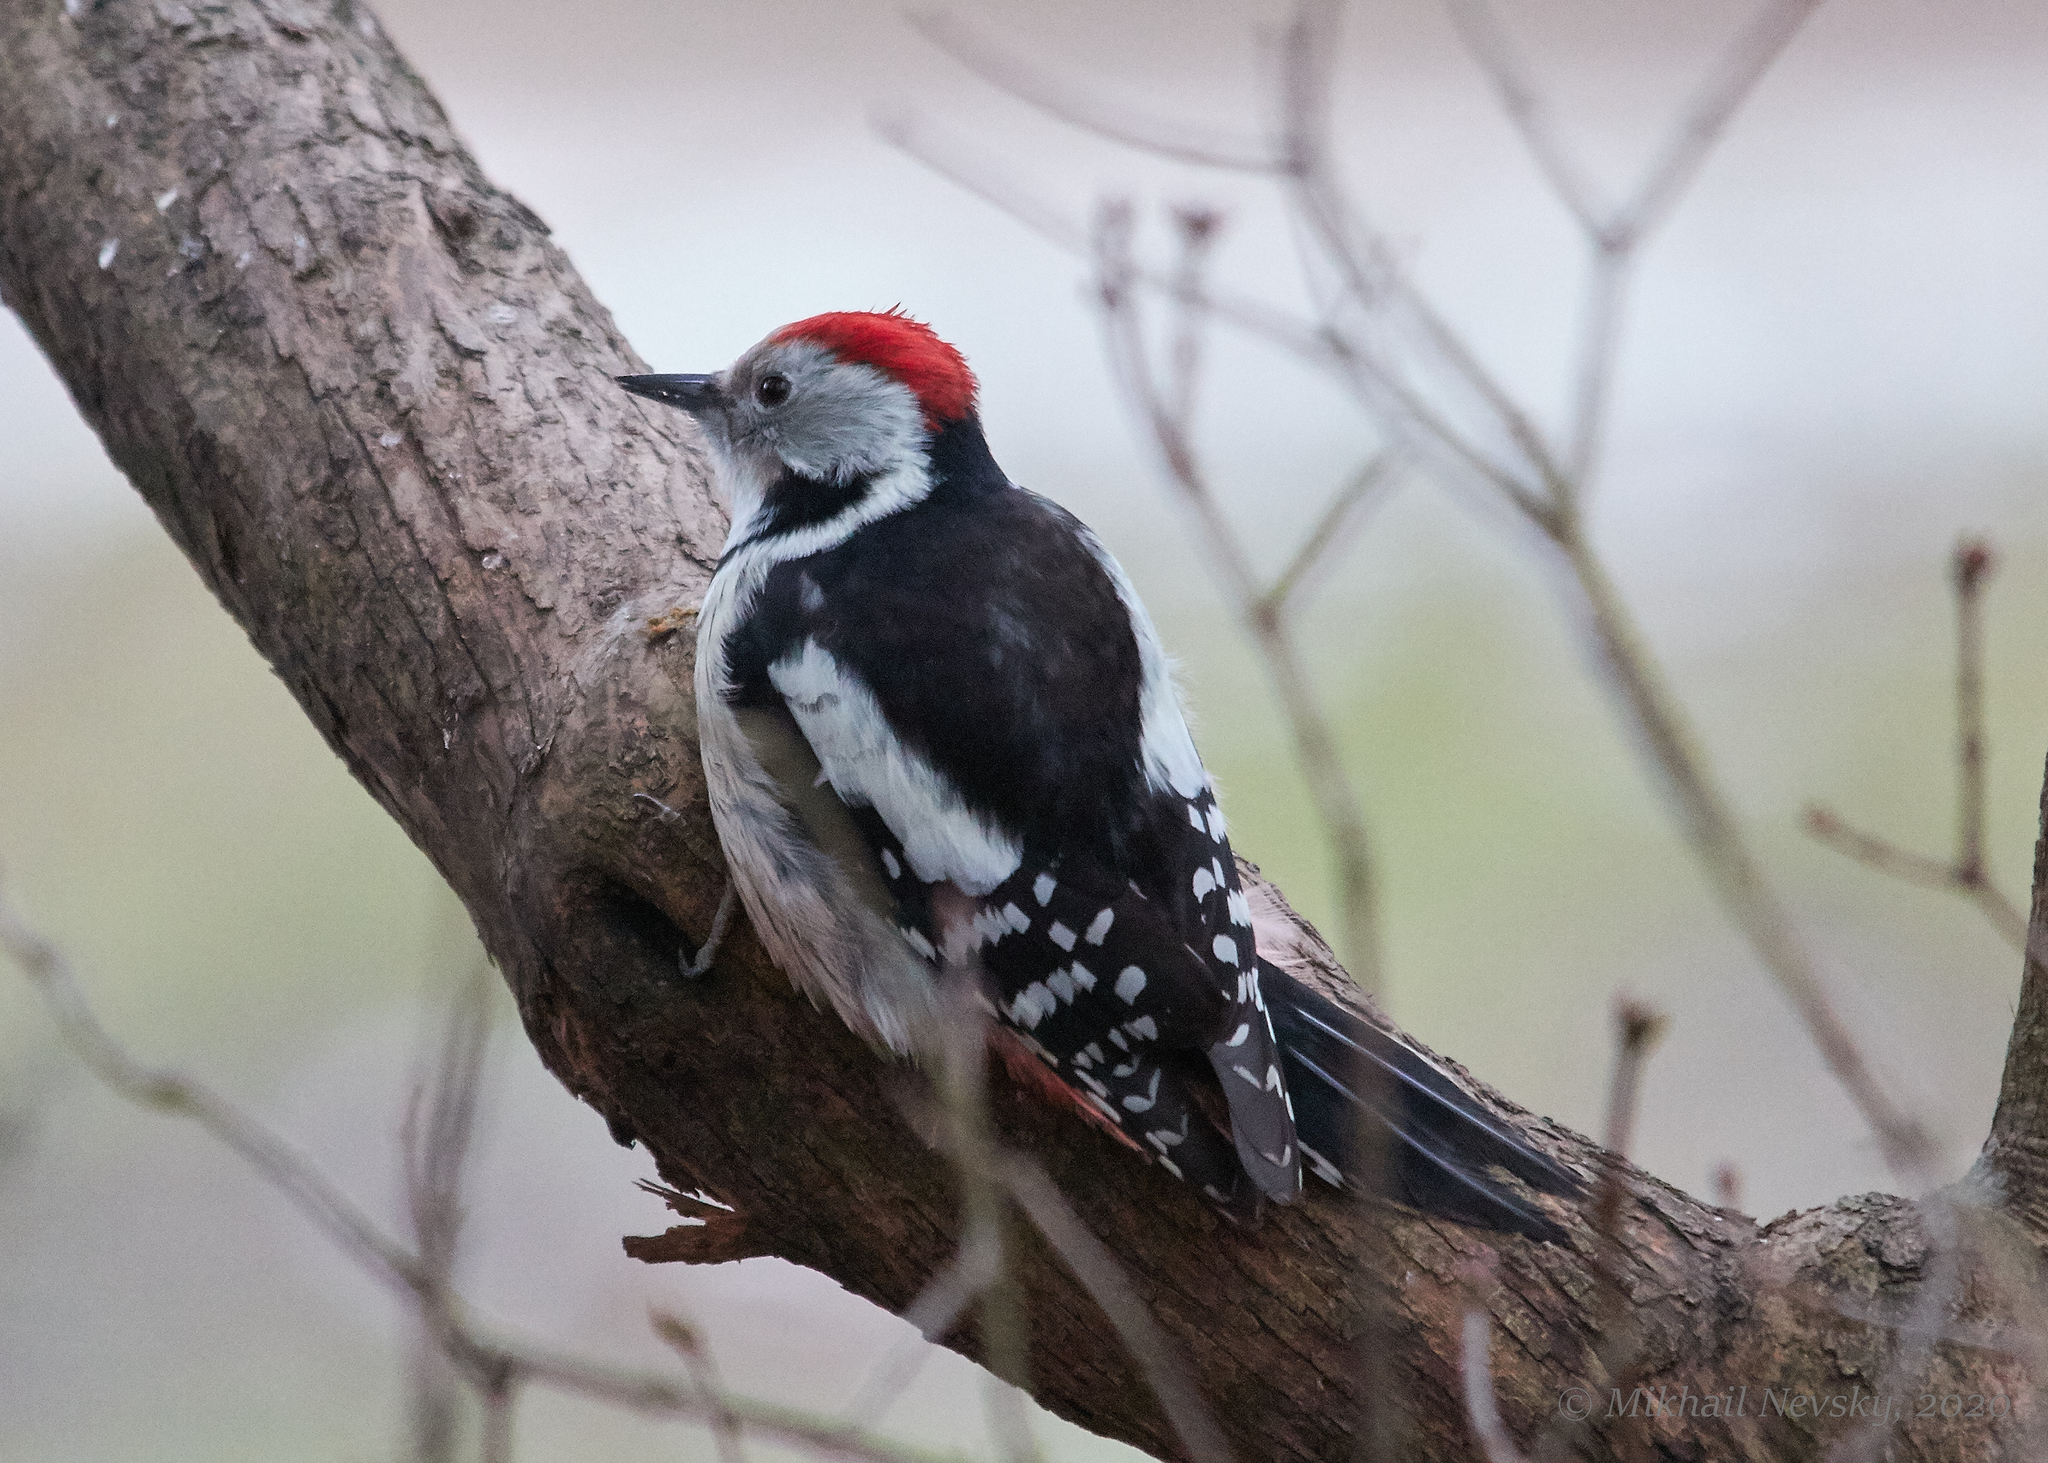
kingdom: Animalia
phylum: Chordata
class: Aves
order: Piciformes
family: Picidae
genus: Dendrocoptes
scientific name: Dendrocoptes medius
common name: Middle spotted woodpecker
